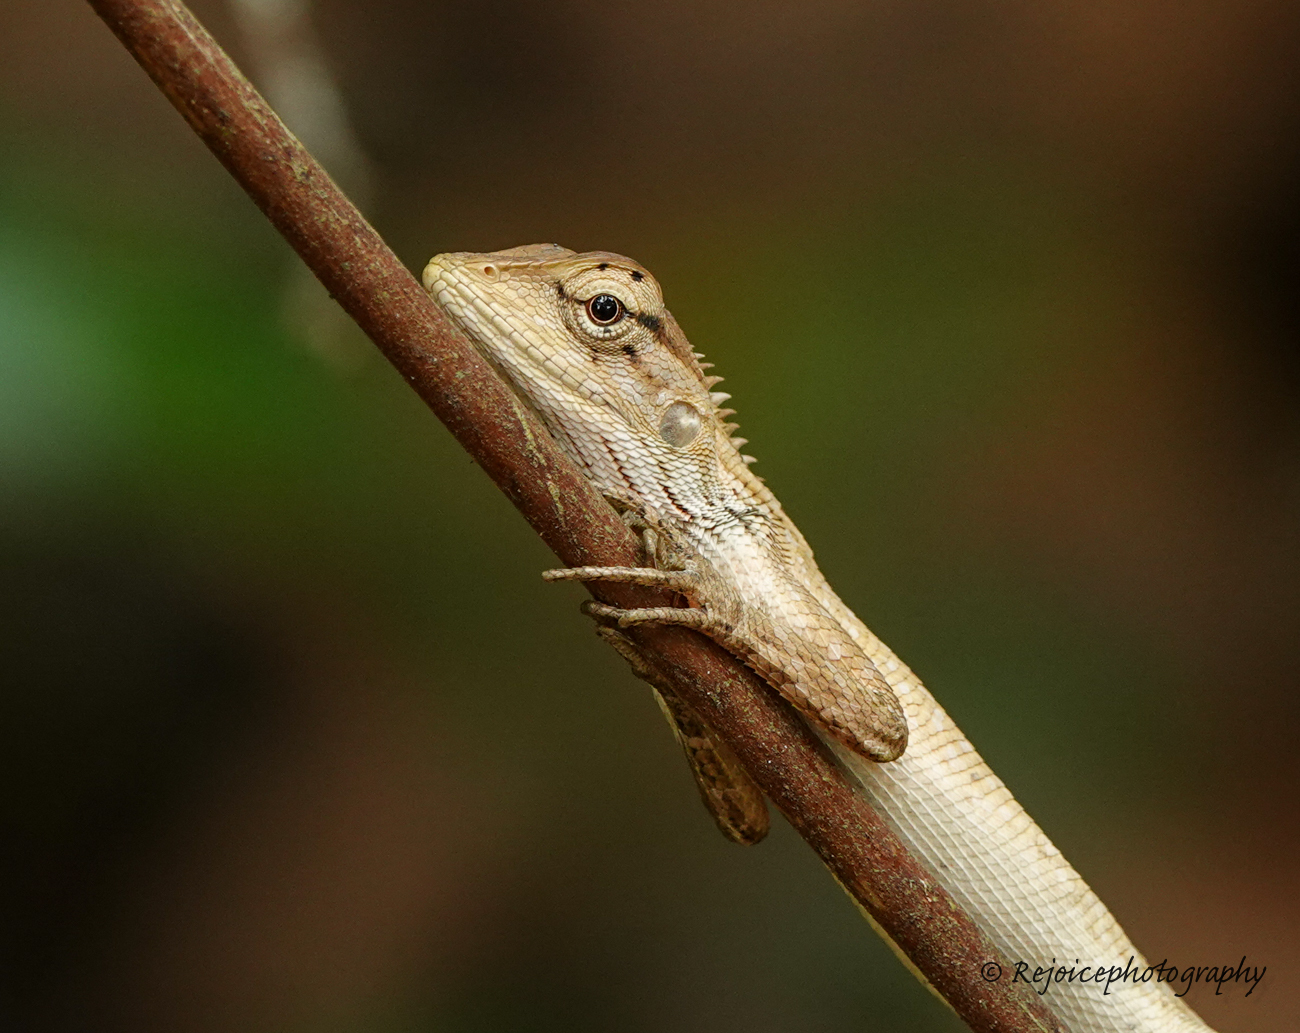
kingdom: Animalia
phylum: Chordata
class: Squamata
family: Agamidae
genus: Calotes
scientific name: Calotes versicolor
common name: Oriental garden lizard
